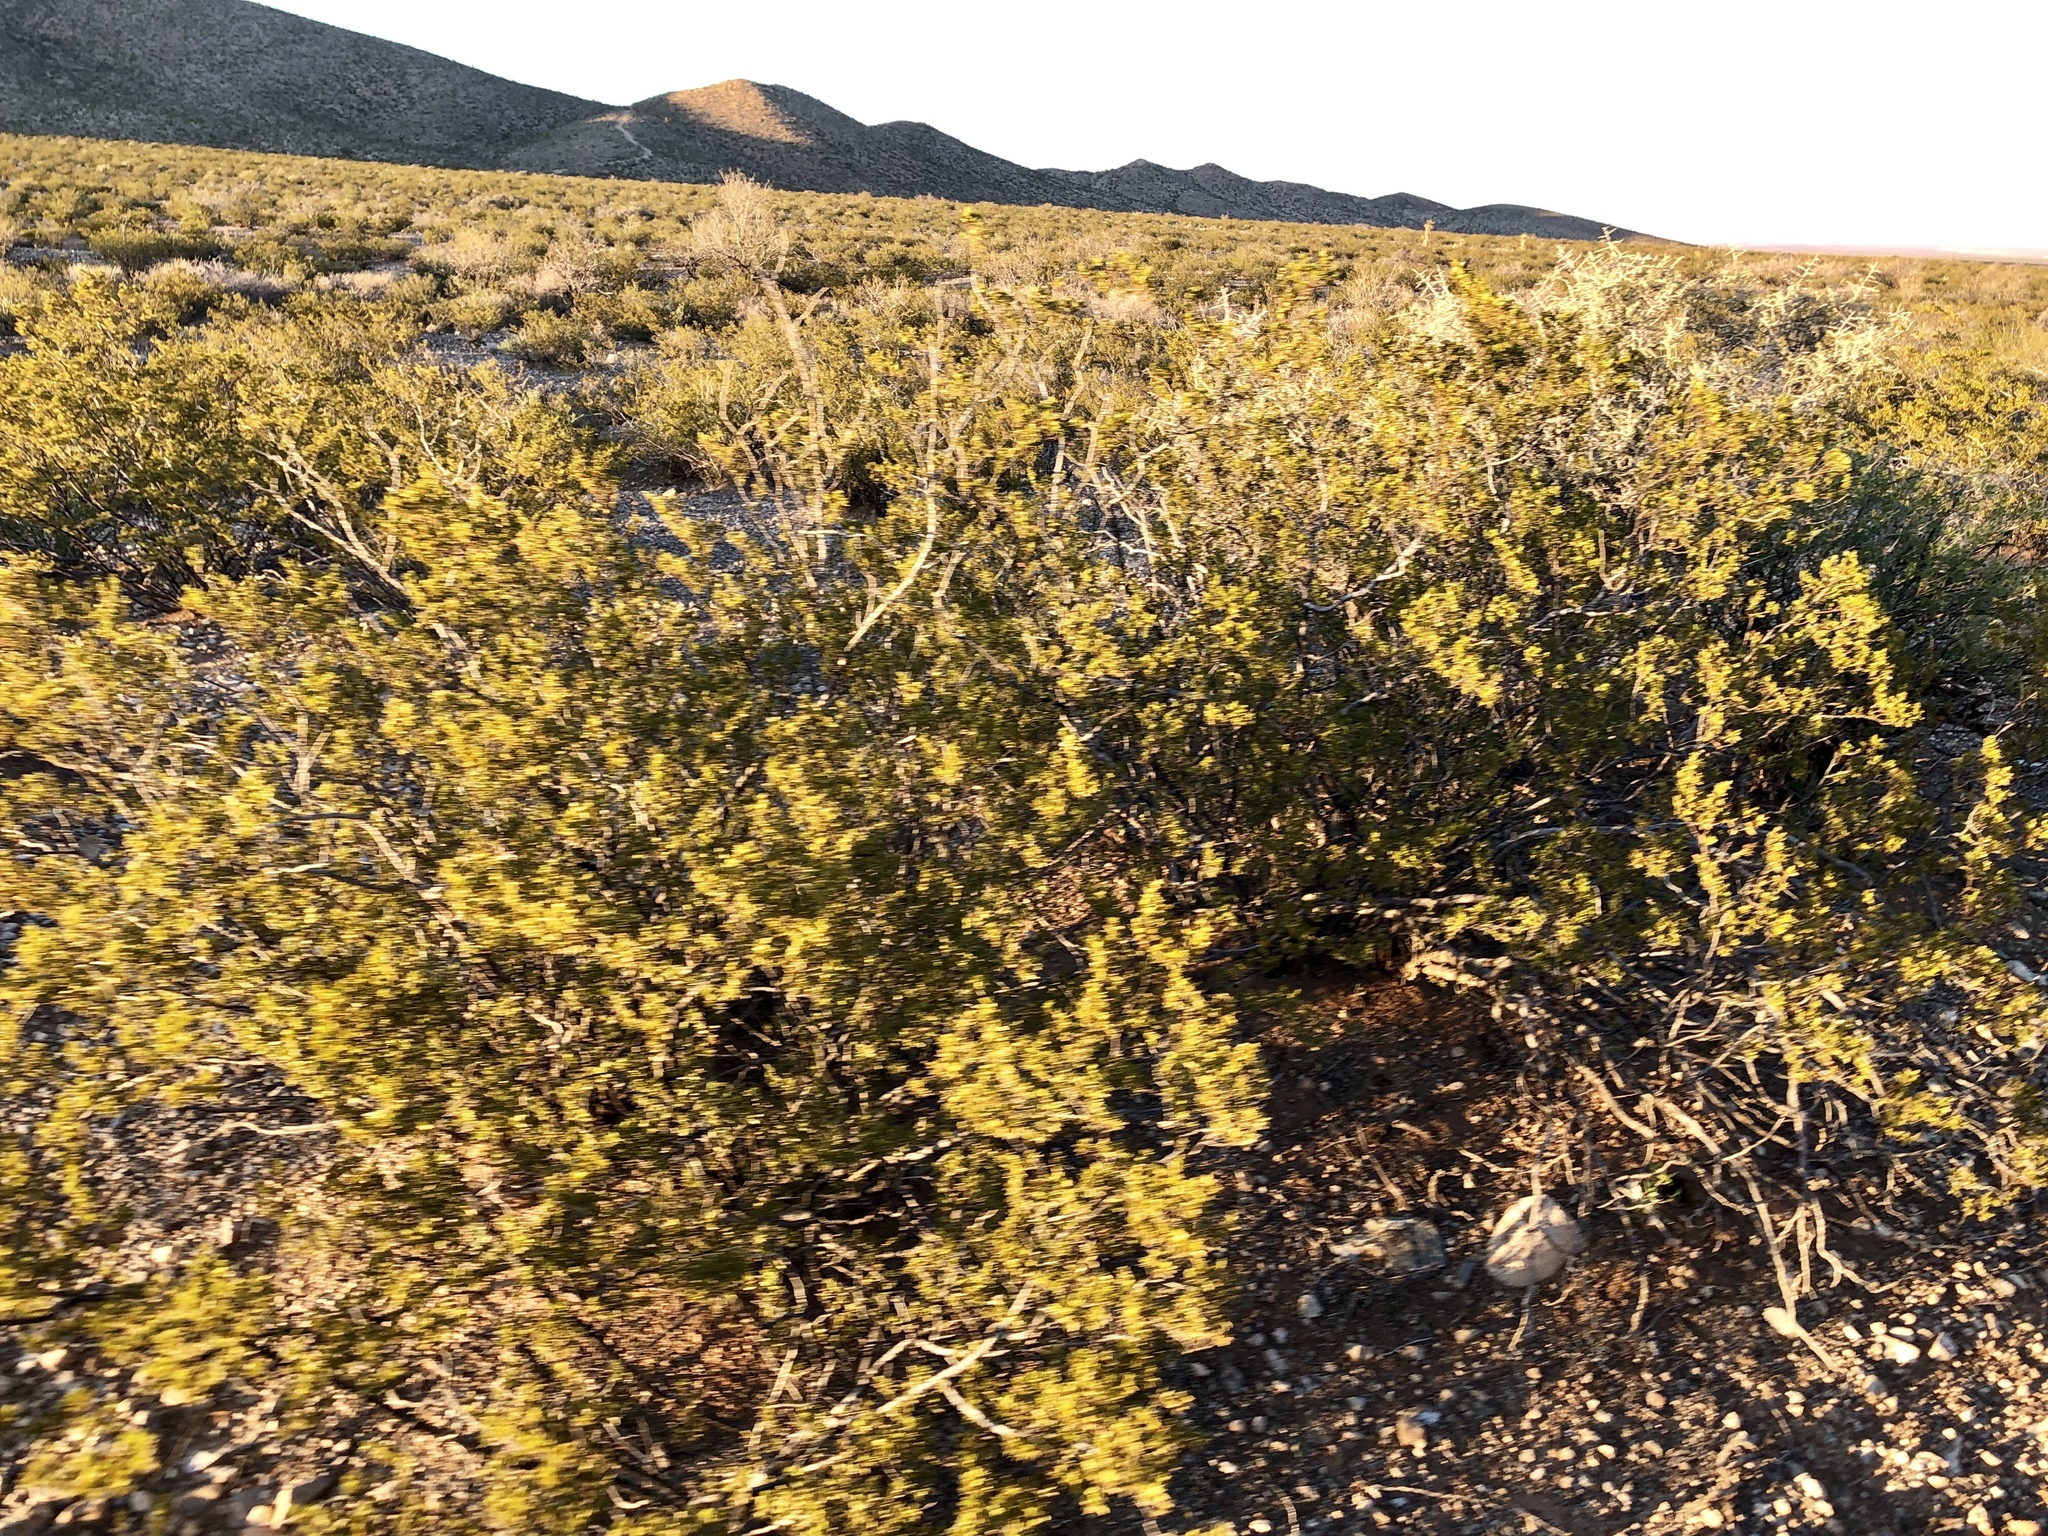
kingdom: Plantae
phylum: Tracheophyta
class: Magnoliopsida
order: Zygophyllales
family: Zygophyllaceae
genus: Larrea
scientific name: Larrea tridentata
